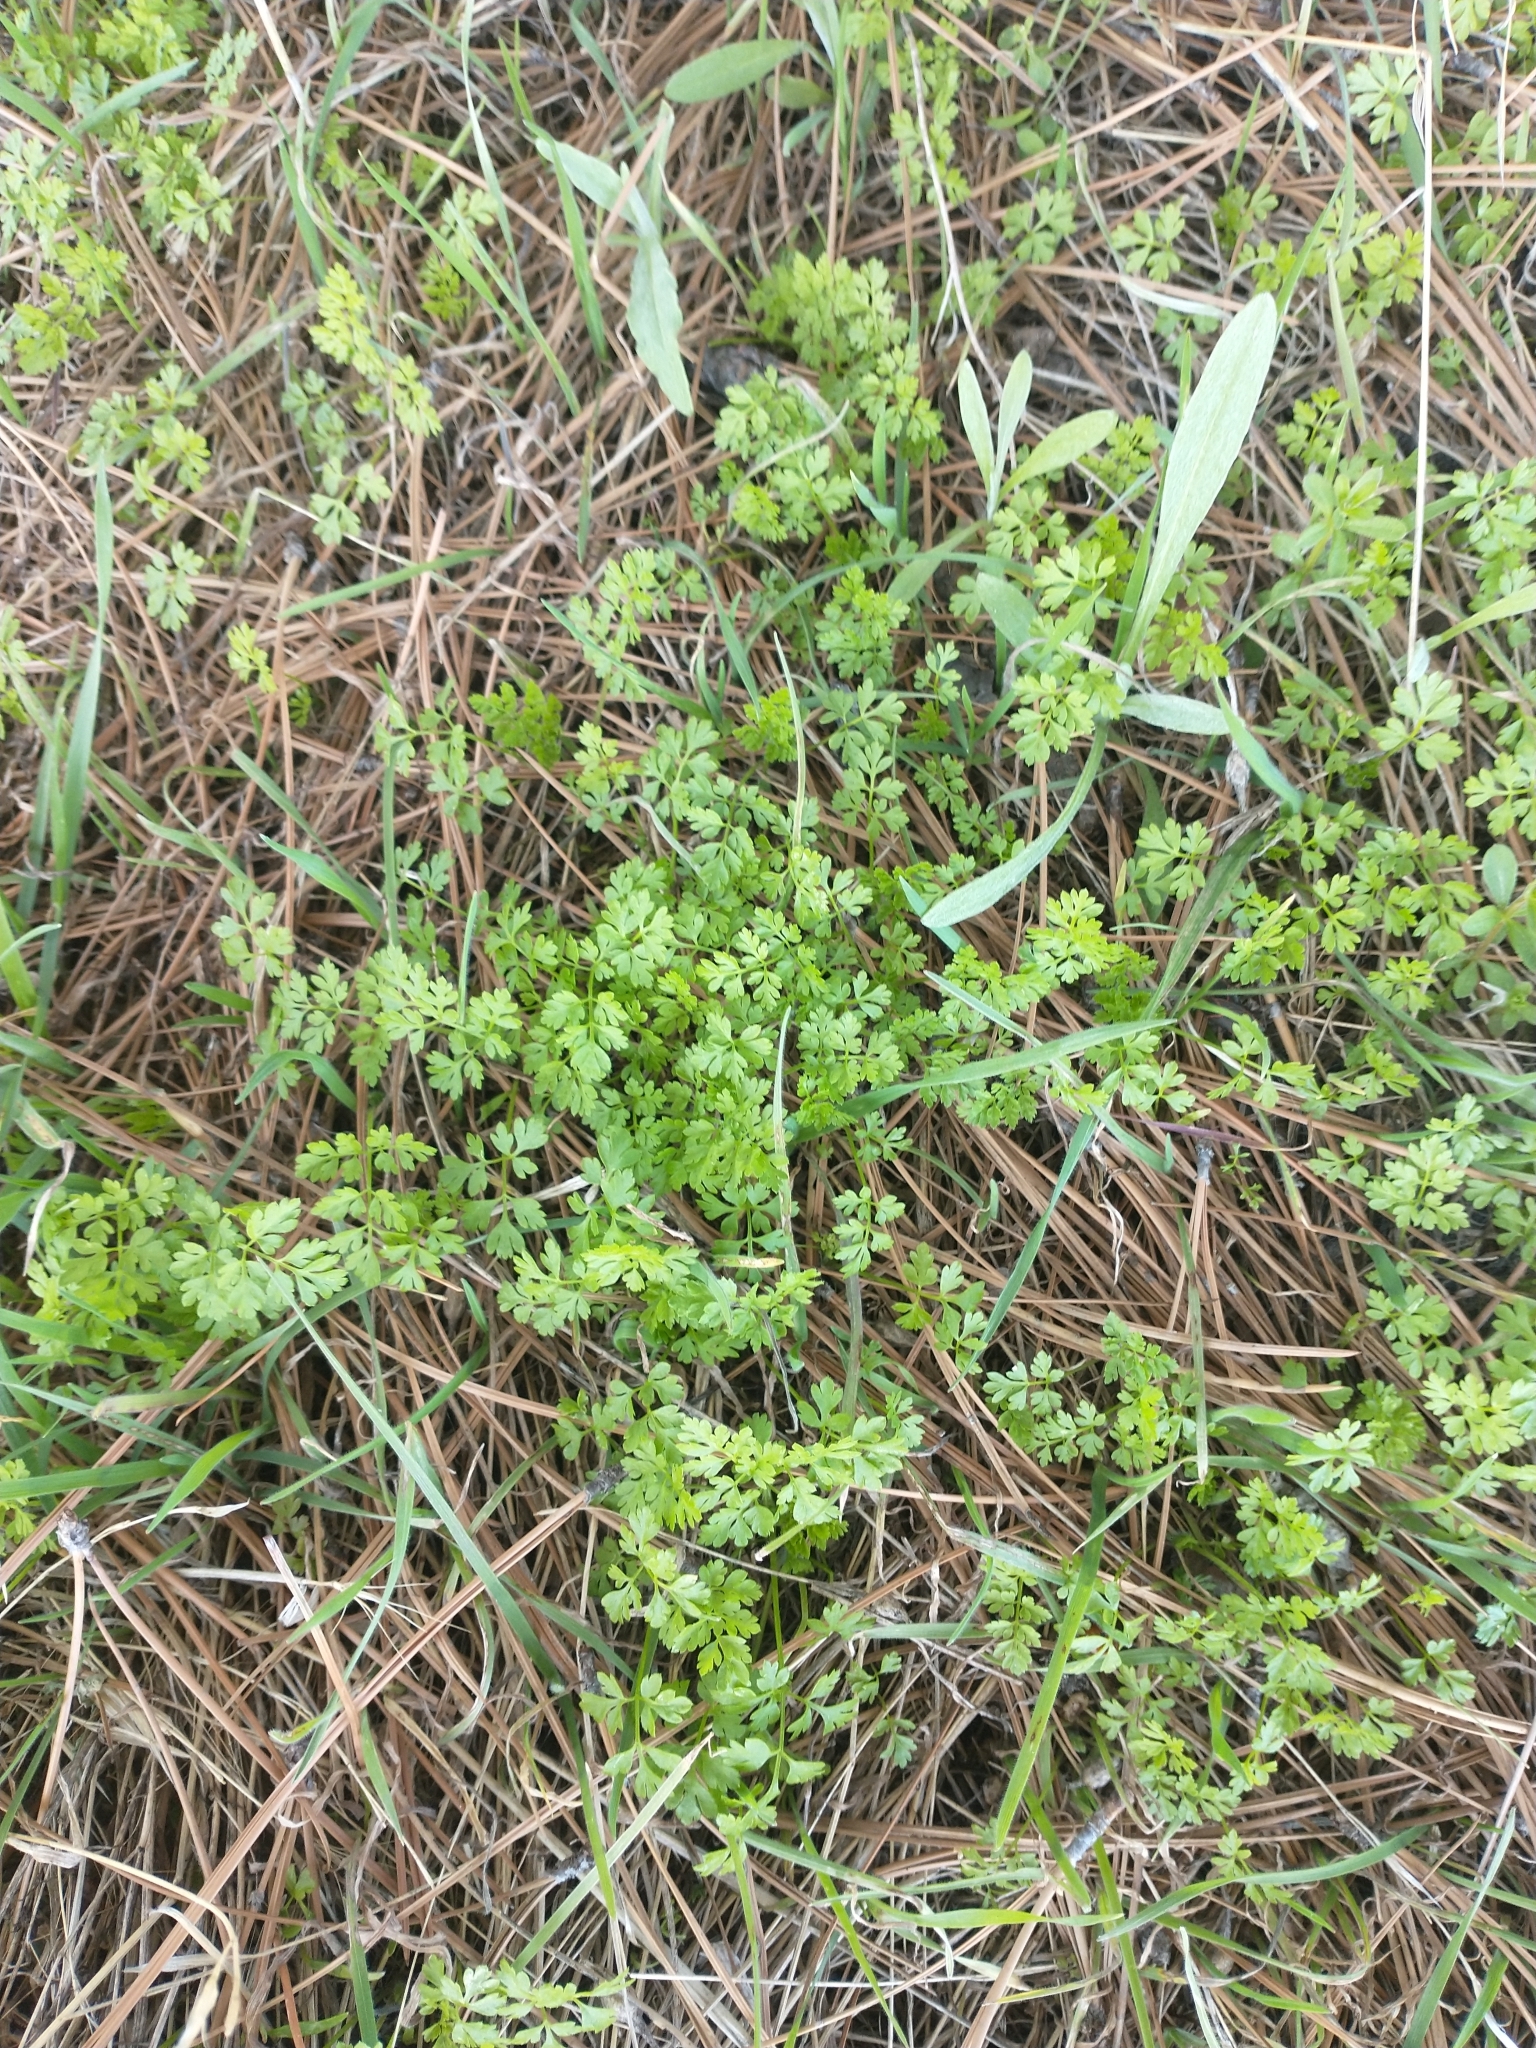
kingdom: Plantae
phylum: Tracheophyta
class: Magnoliopsida
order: Apiales
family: Apiaceae
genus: Anthriscus
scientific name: Anthriscus caucalis
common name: Bur chervil
